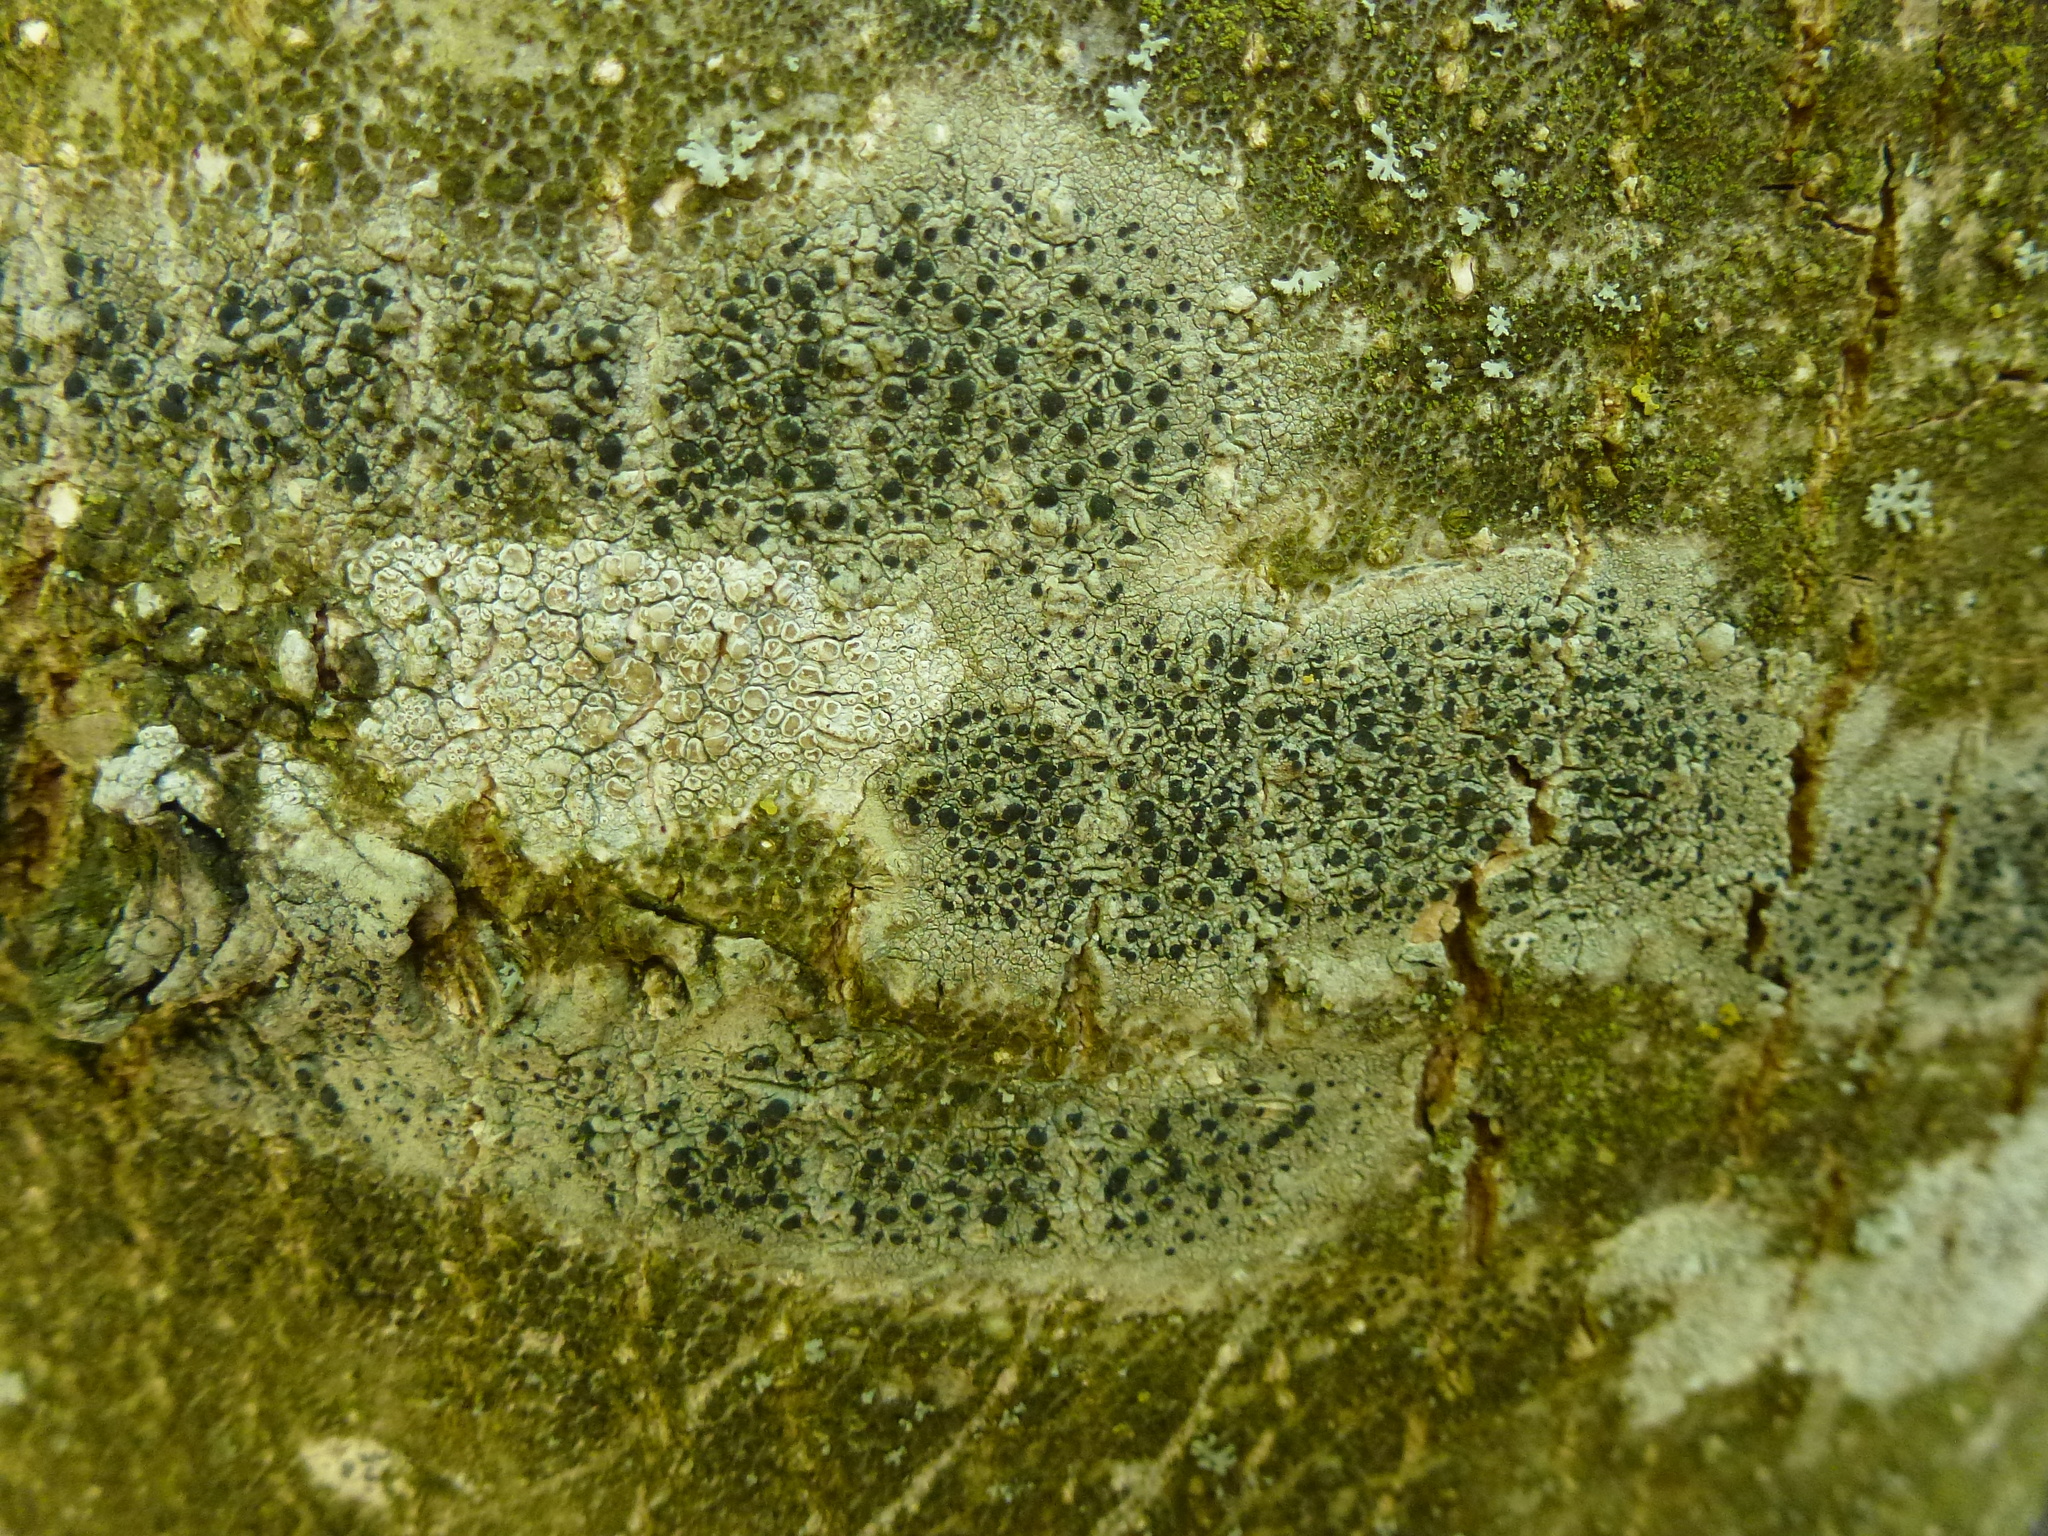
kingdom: Fungi
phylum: Ascomycota
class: Lecanoromycetes
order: Lecanorales
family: Lecanoraceae
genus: Lecidella
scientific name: Lecidella elaeochroma
